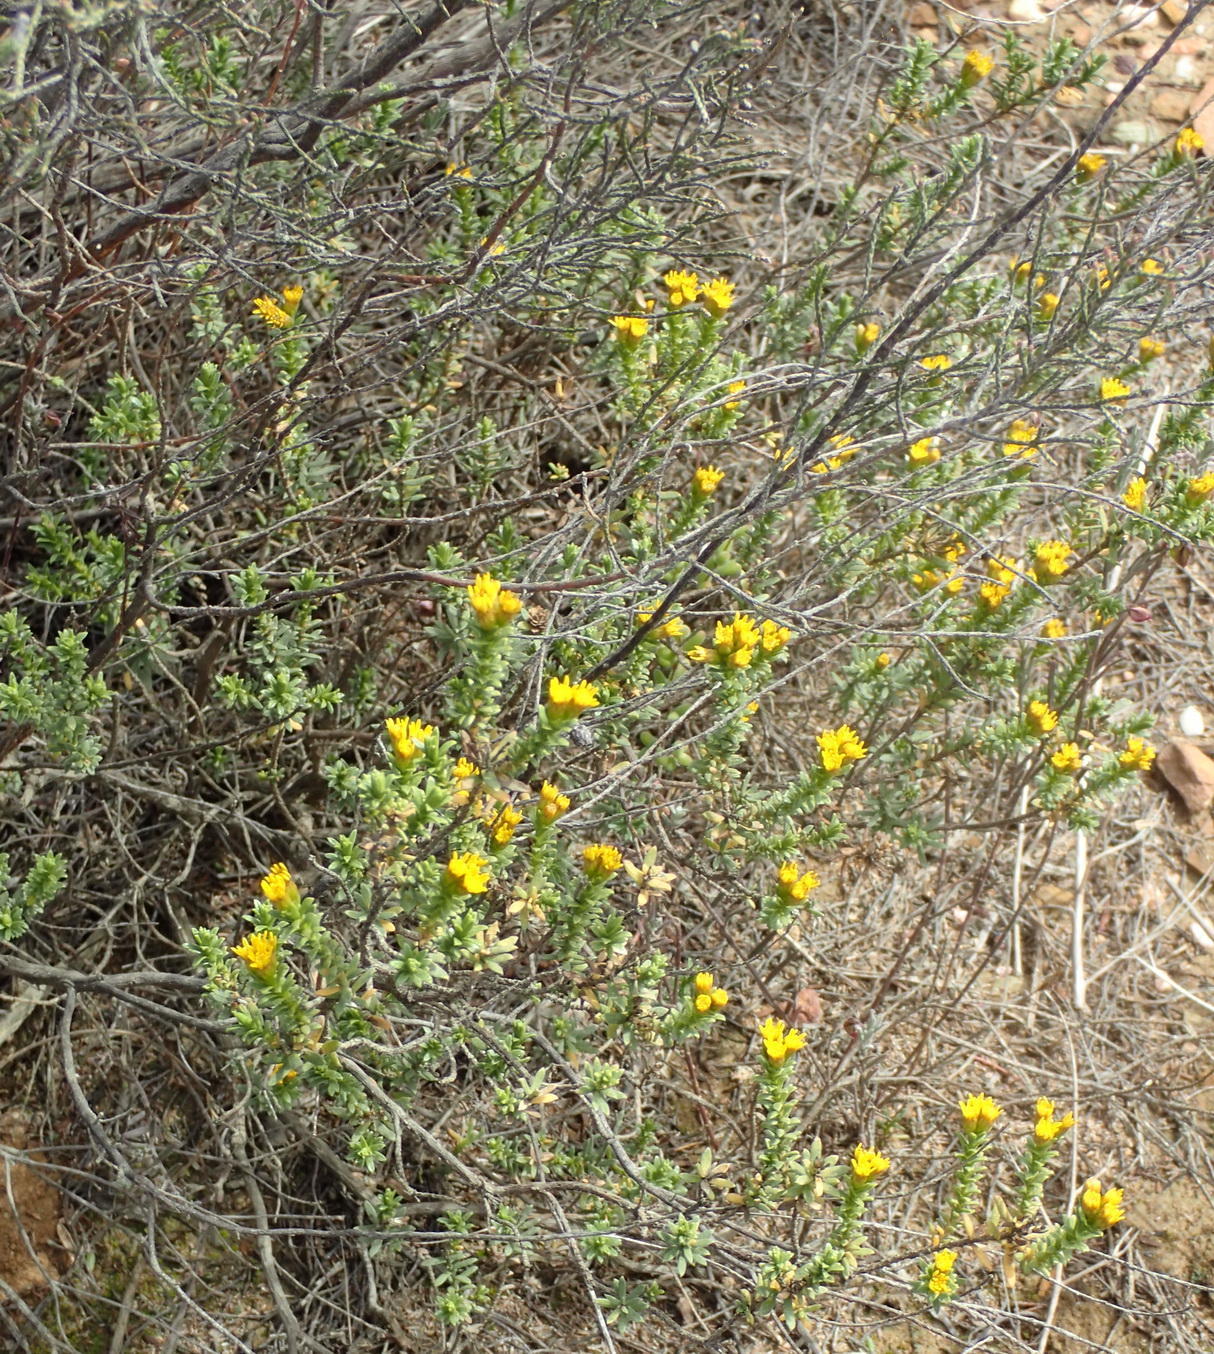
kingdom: Plantae
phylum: Tracheophyta
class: Magnoliopsida
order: Asterales
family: Asteraceae
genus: Oedera
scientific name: Oedera genistifolia
